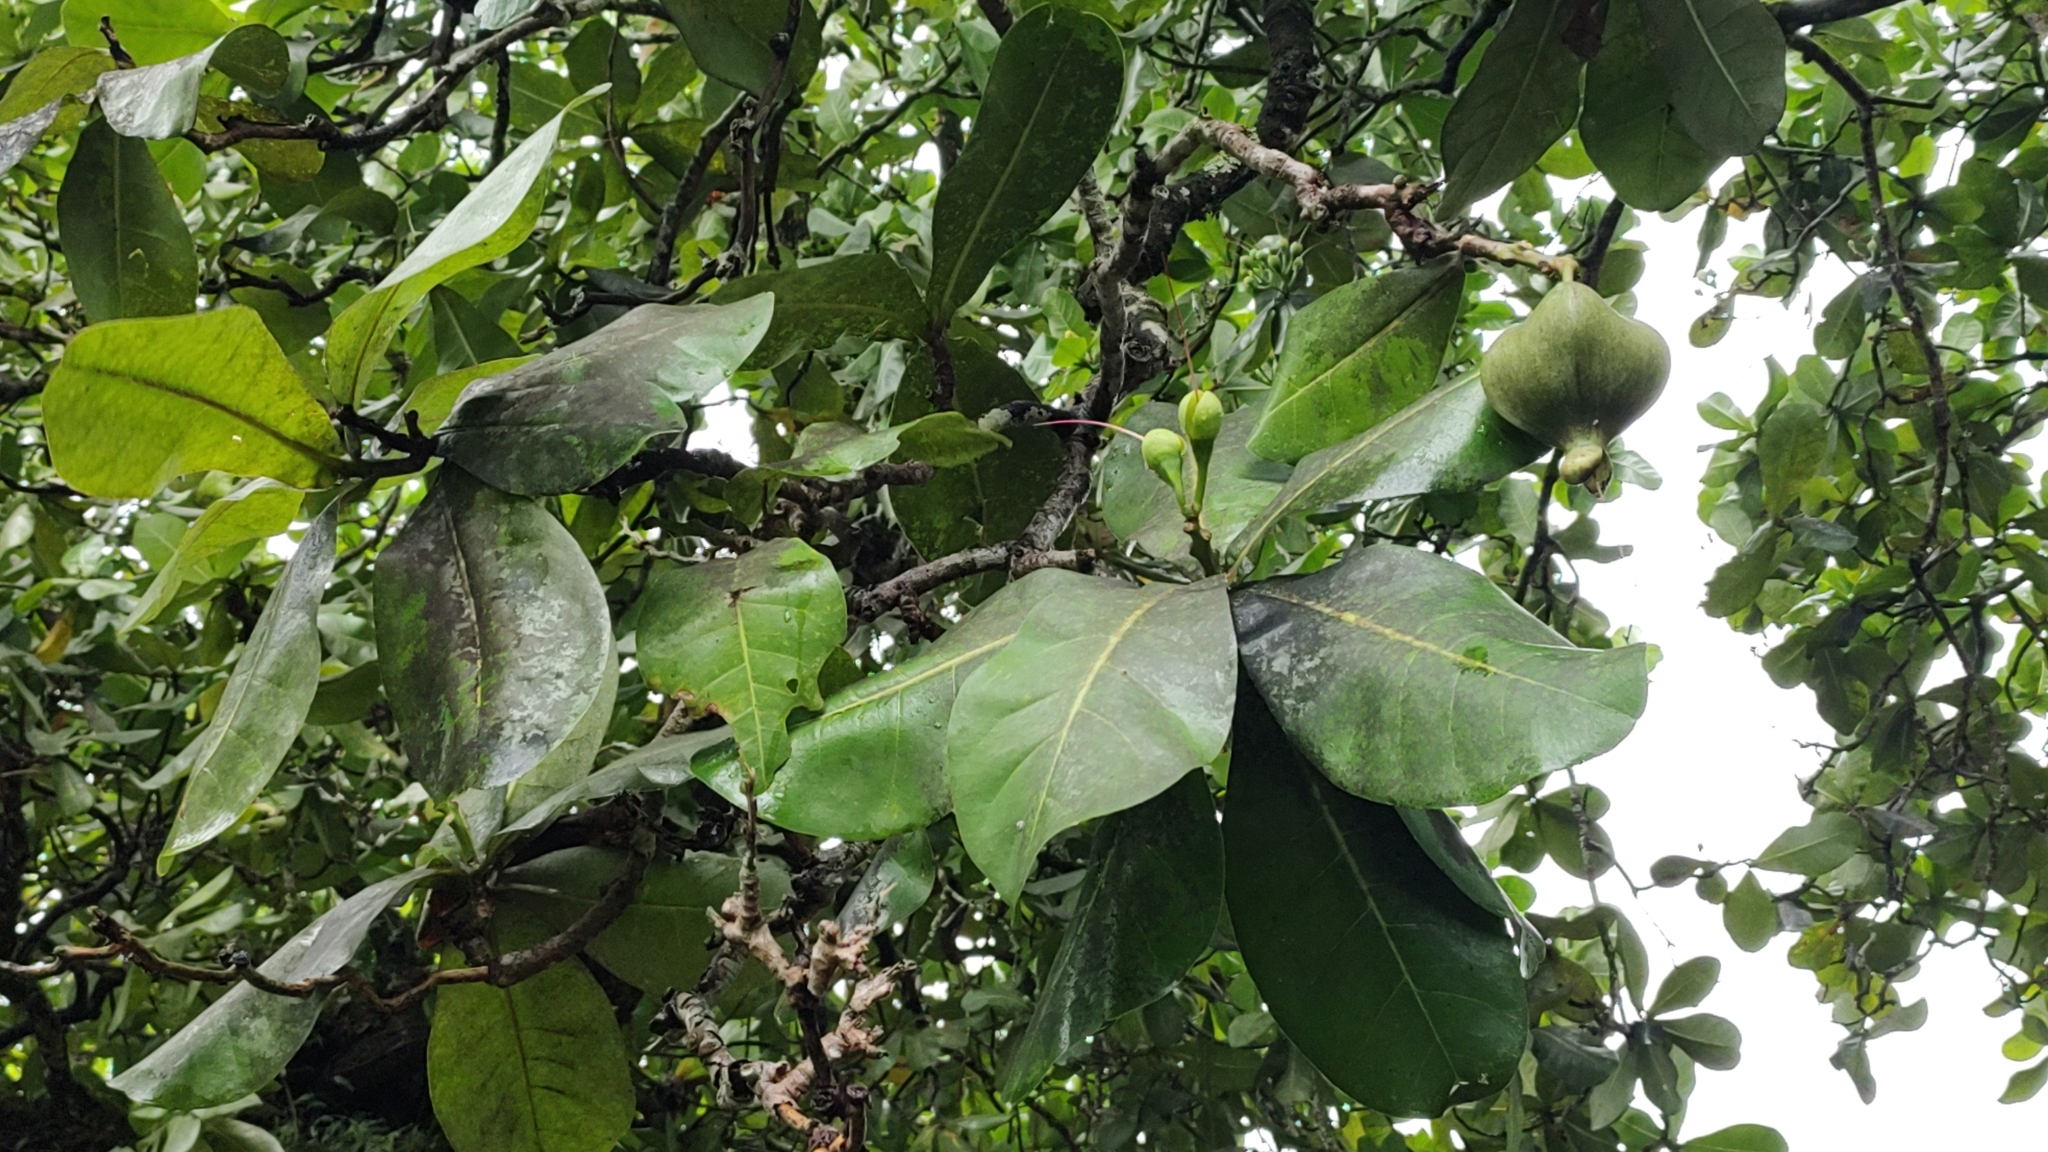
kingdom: Plantae
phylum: Tracheophyta
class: Magnoliopsida
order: Ericales
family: Lecythidaceae
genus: Barringtonia
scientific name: Barringtonia asiatica
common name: Mango-pine
